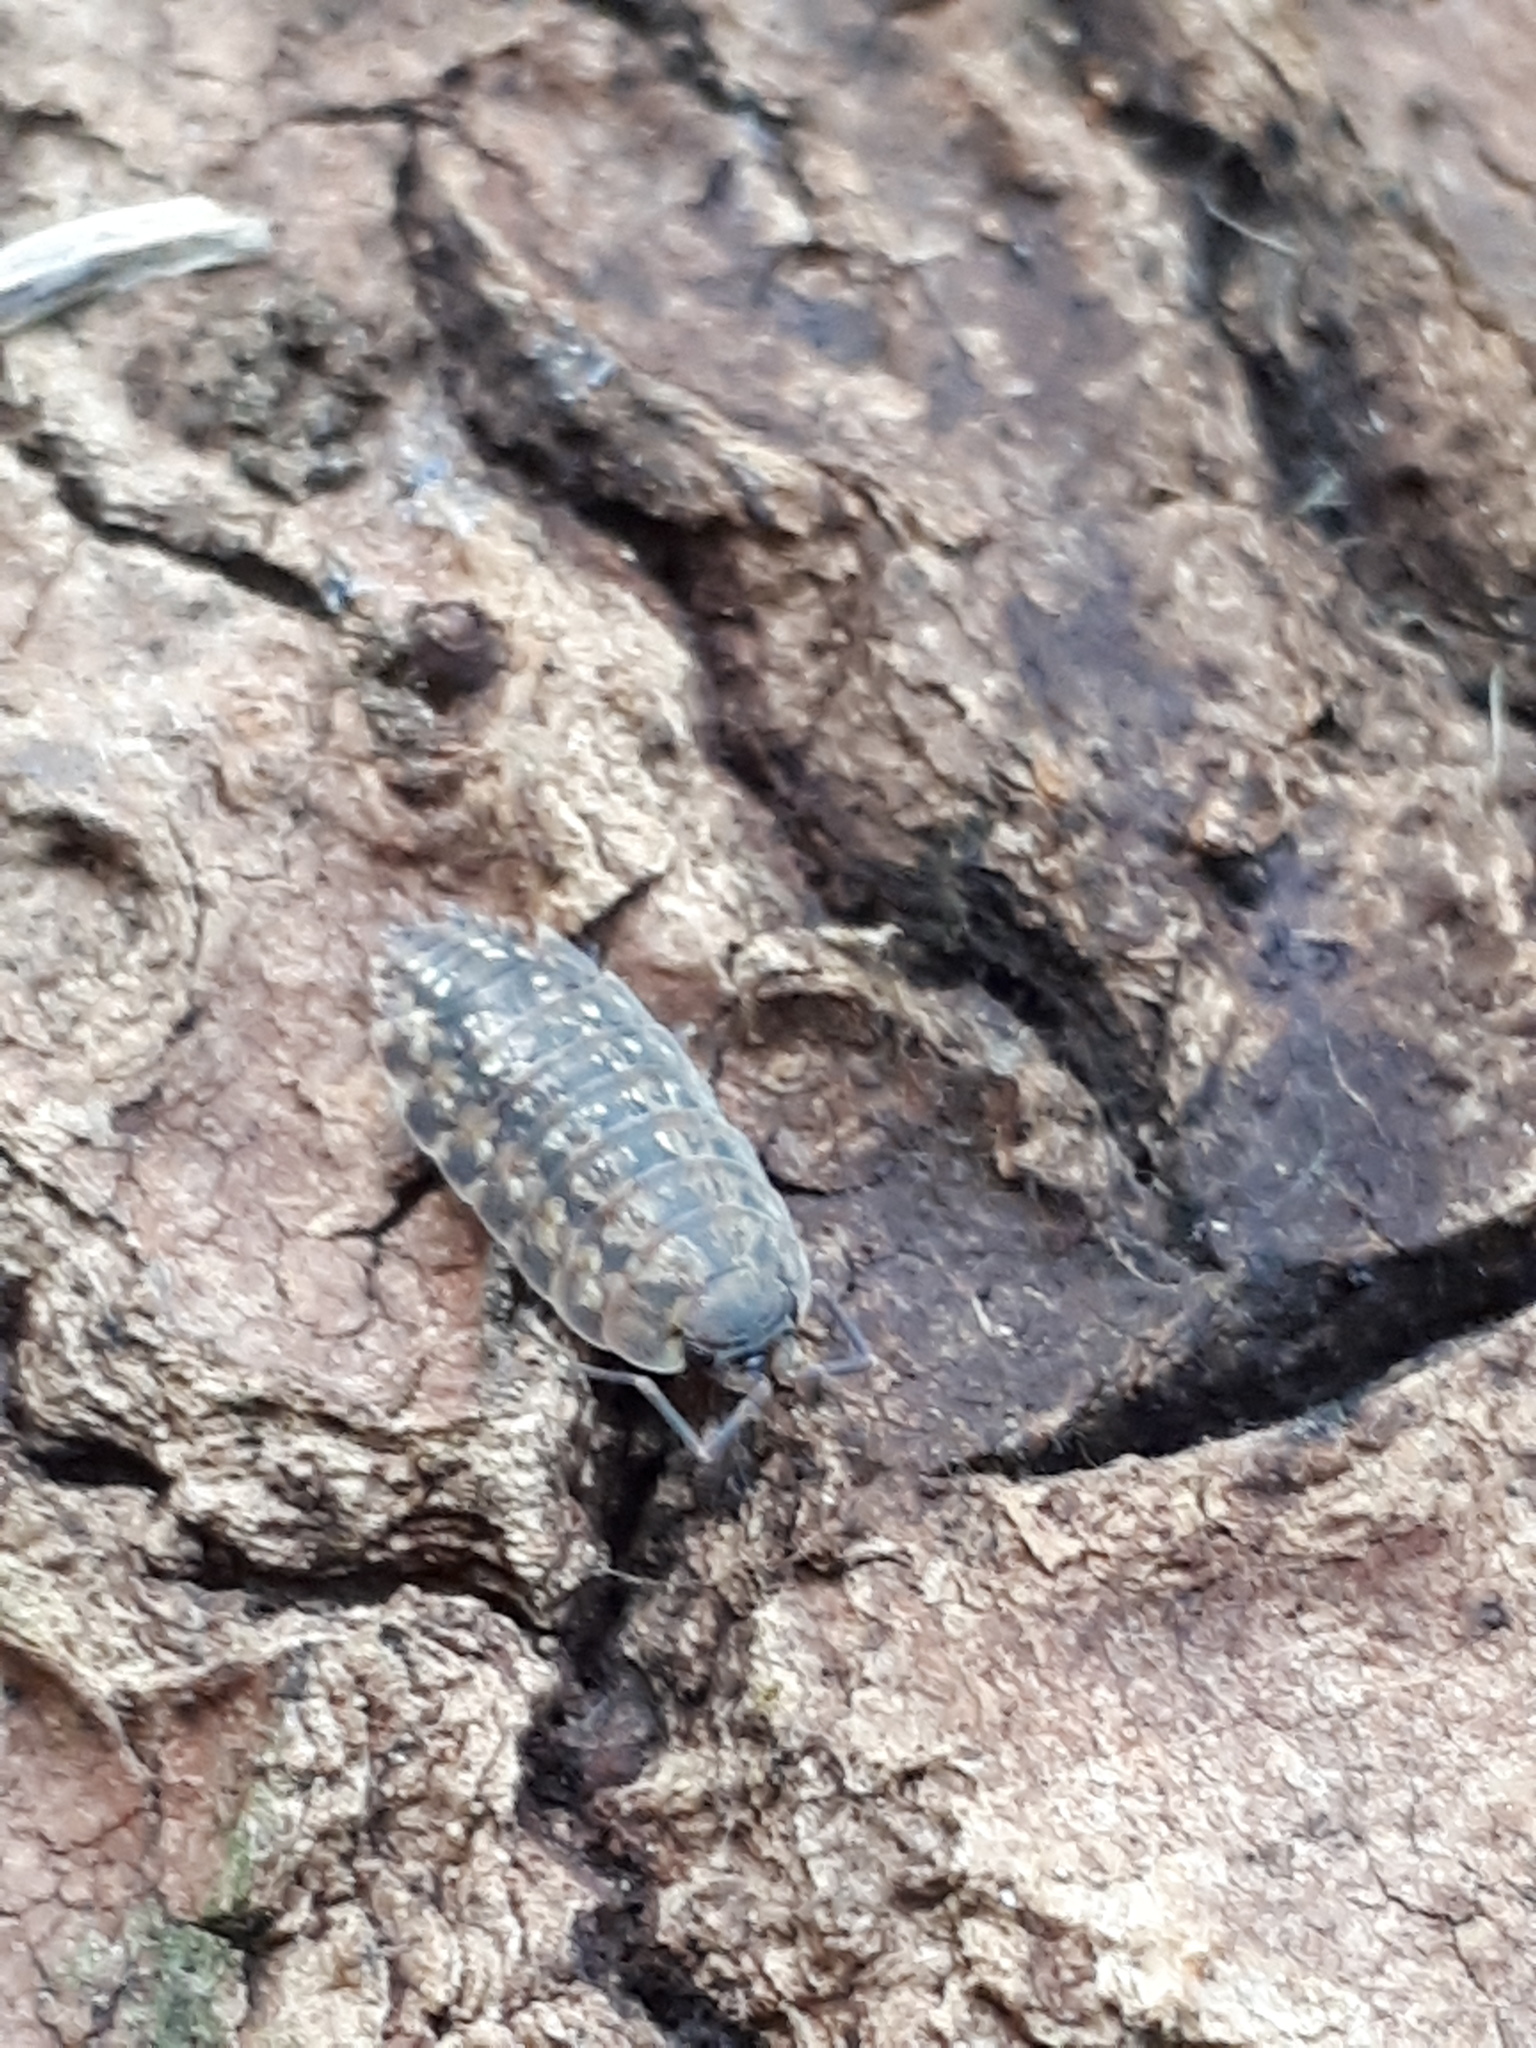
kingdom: Animalia
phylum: Arthropoda
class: Malacostraca
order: Isopoda
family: Philosciidae
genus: Lepidoniscus
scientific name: Lepidoniscus minutus
